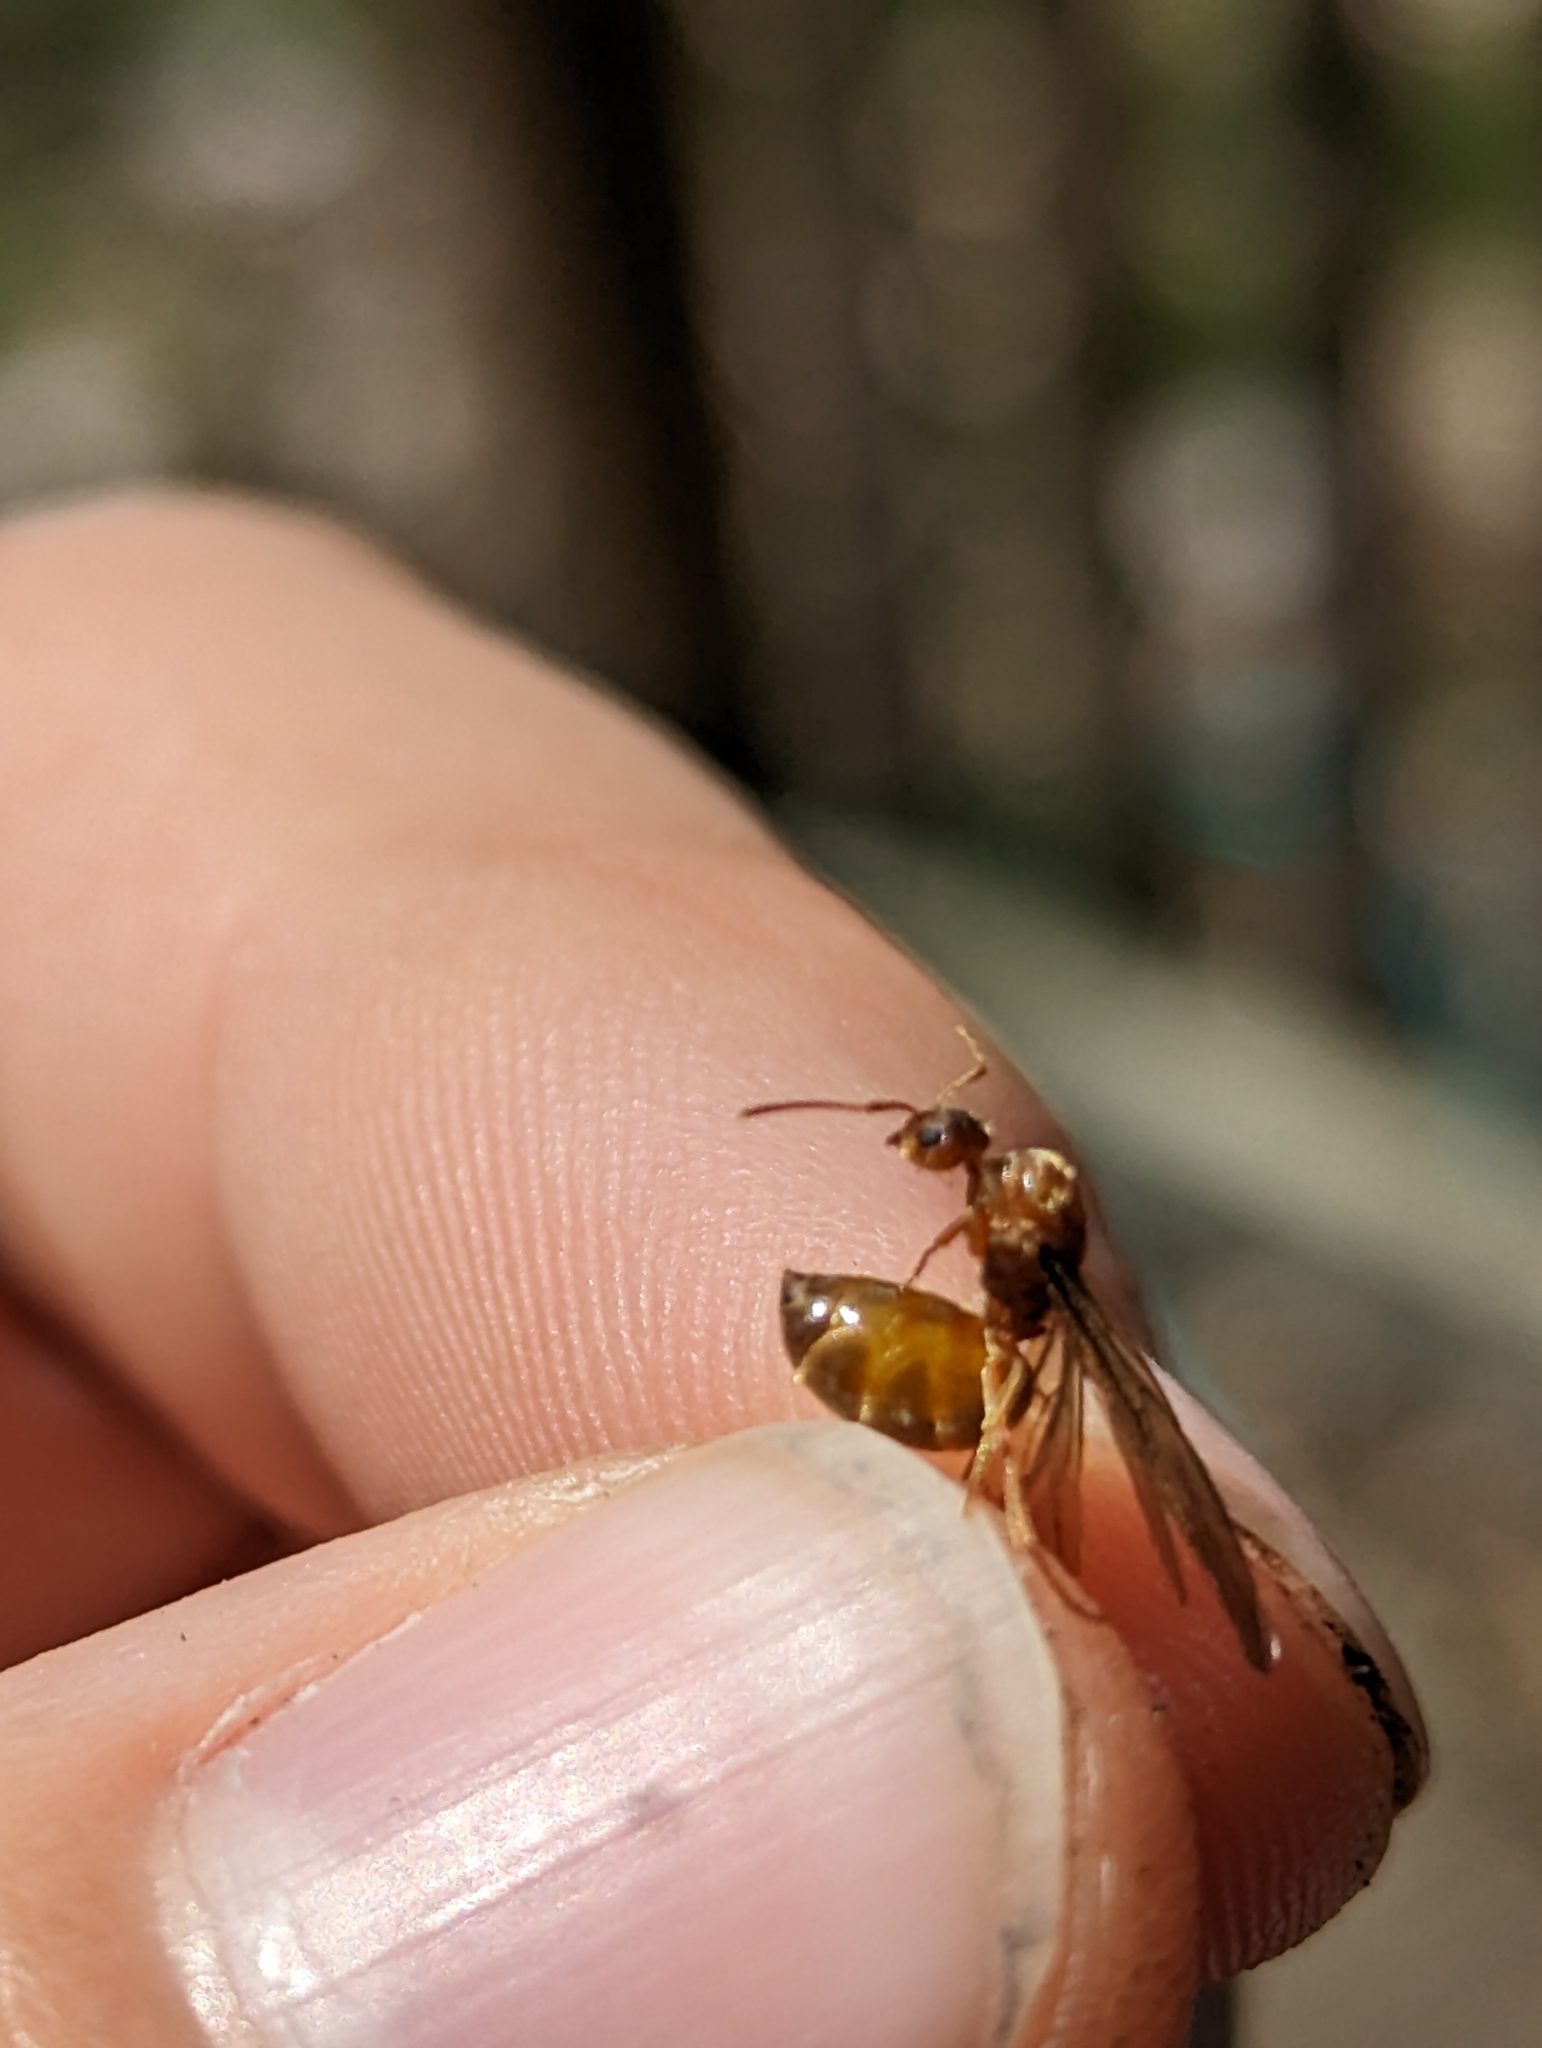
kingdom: Animalia
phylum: Arthropoda
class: Insecta
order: Hymenoptera
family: Formicidae
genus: Prenolepis
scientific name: Prenolepis imparis
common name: Small honey ant
